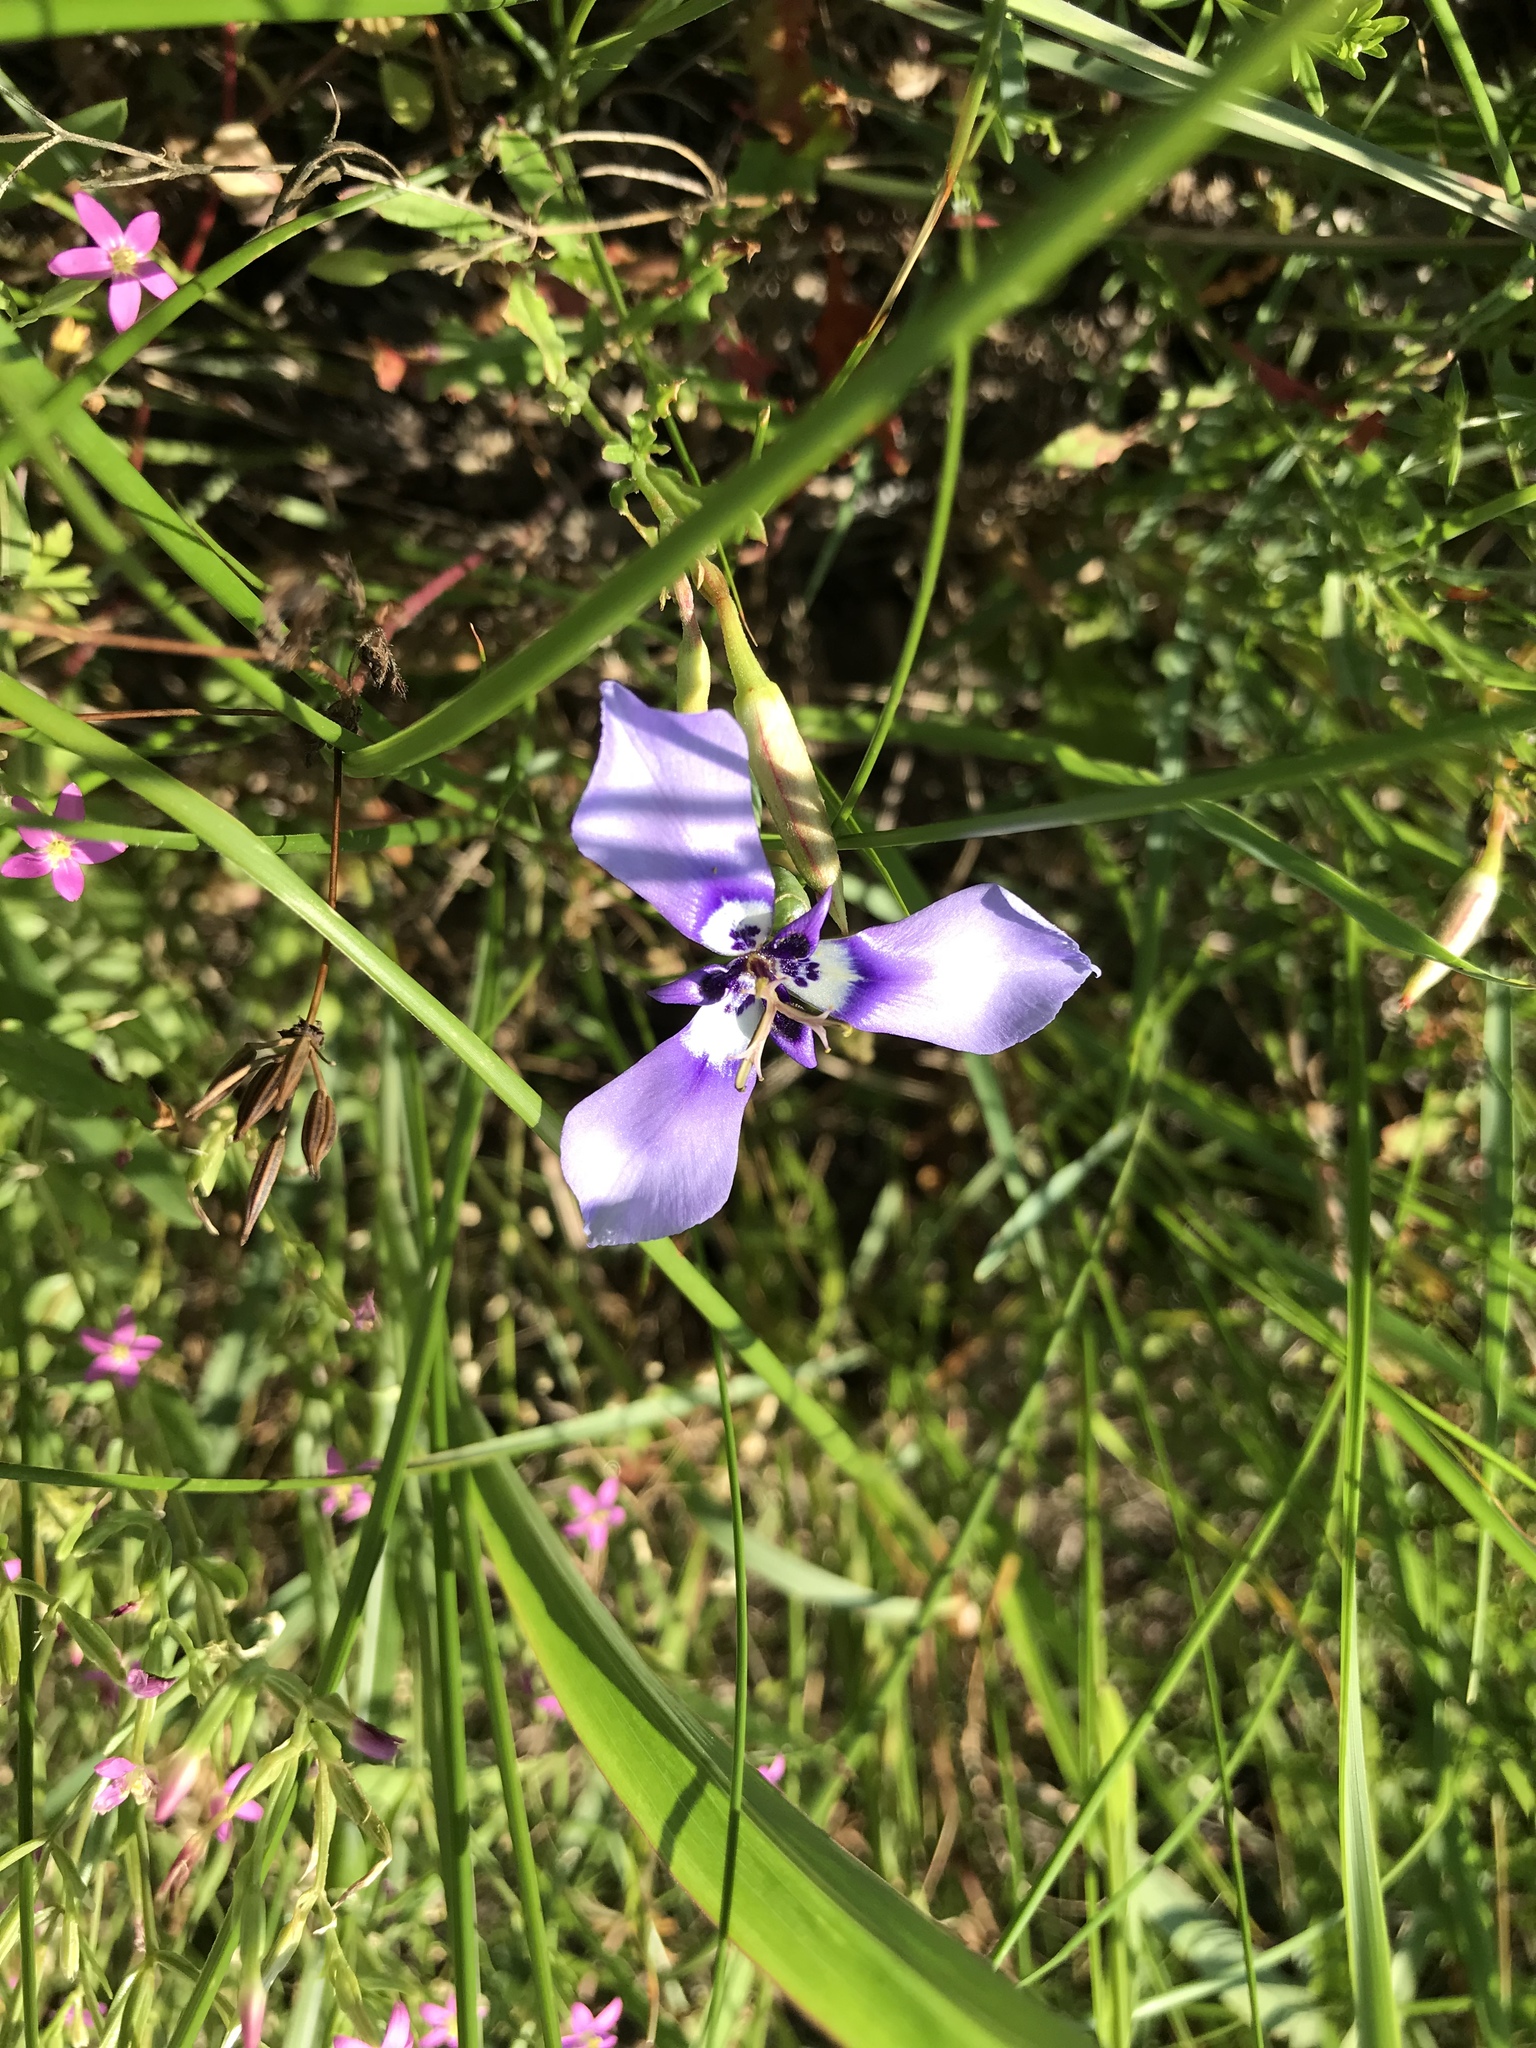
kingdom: Plantae
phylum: Tracheophyta
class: Liliopsida
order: Asparagales
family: Iridaceae
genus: Herbertia
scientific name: Herbertia lahue
